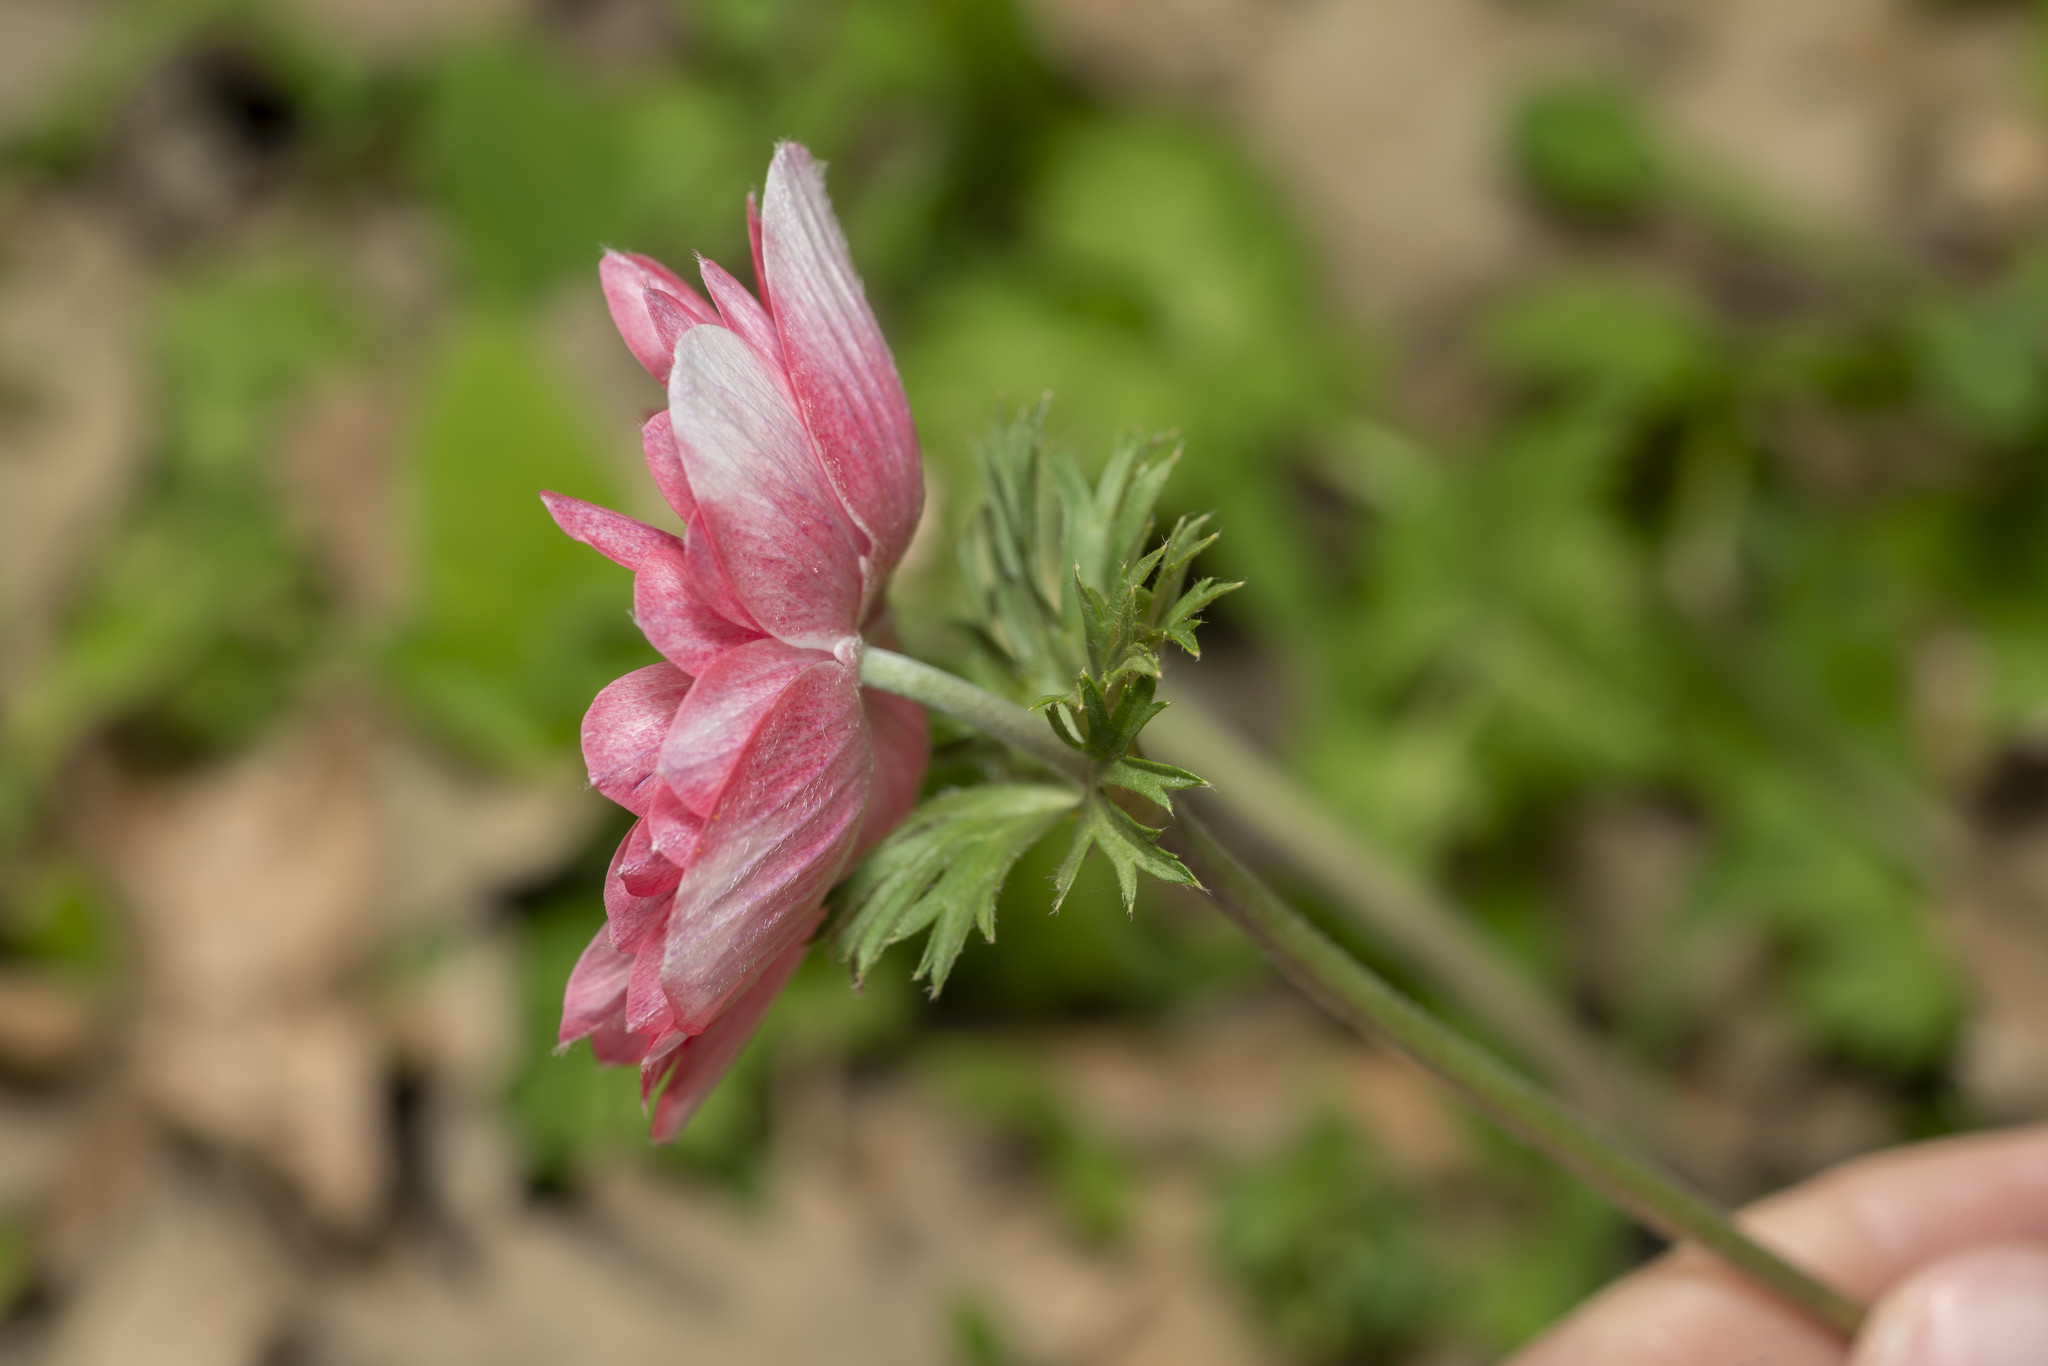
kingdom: Plantae
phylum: Tracheophyta
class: Magnoliopsida
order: Ranunculales
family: Ranunculaceae
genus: Anemone
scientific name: Anemone coronaria
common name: Poppy anemone
